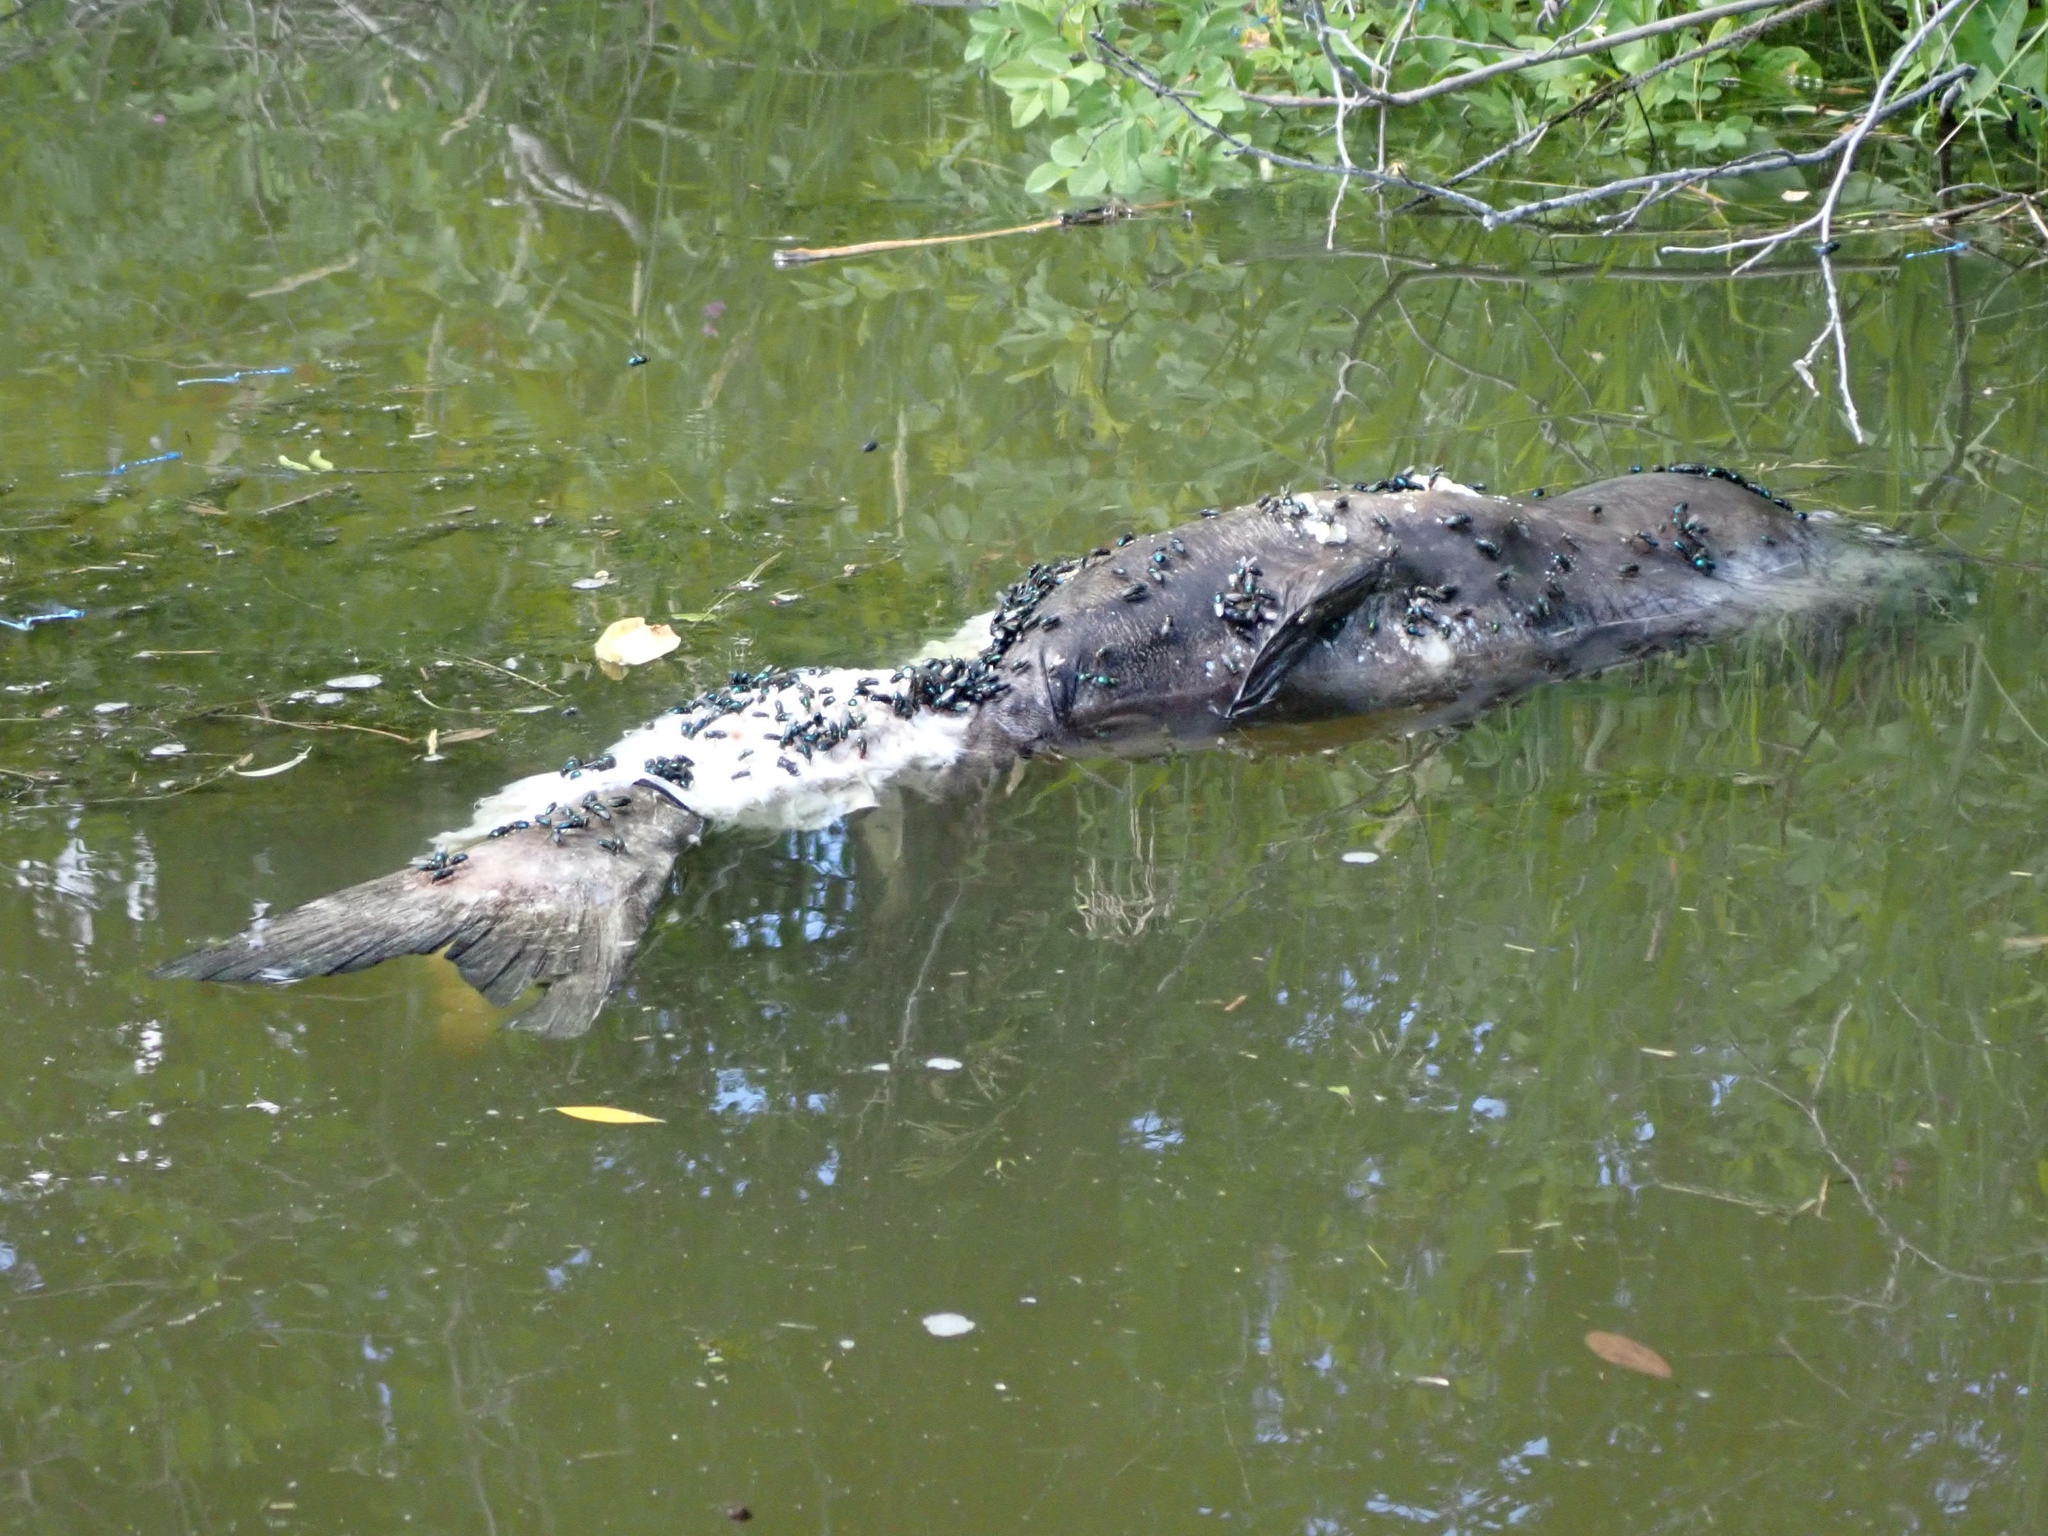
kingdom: Animalia
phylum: Chordata
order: Siluriformes
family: Ictaluridae
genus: Ictalurus
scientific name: Ictalurus punctatus
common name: Channel catfish
